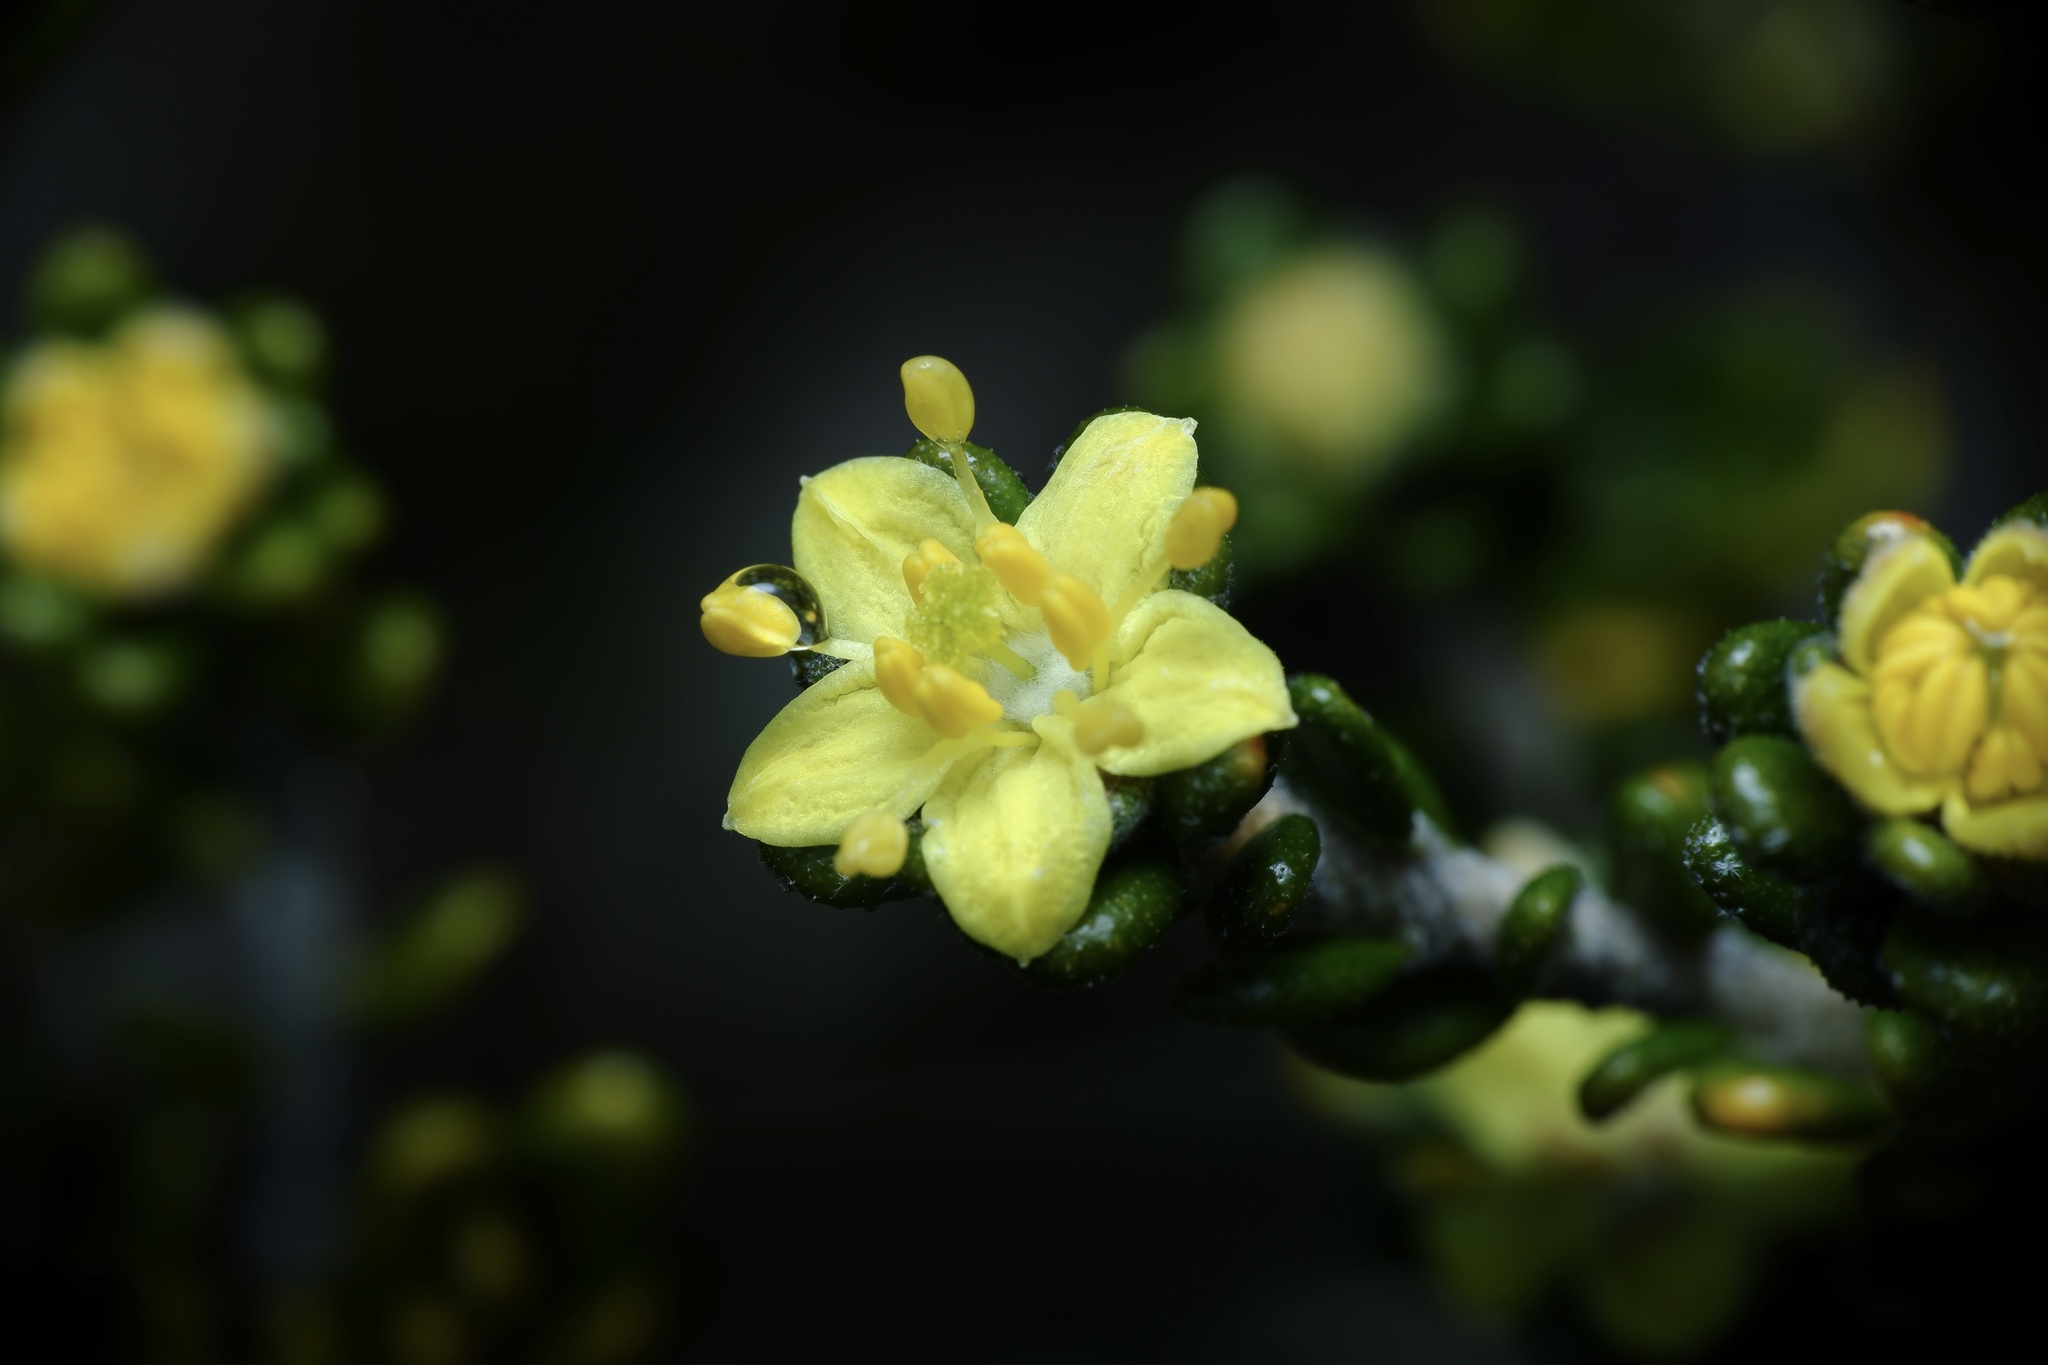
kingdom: Plantae
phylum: Tracheophyta
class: Magnoliopsida
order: Sapindales
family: Rutaceae
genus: Asterolasia
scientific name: Asterolasia trymalioides
